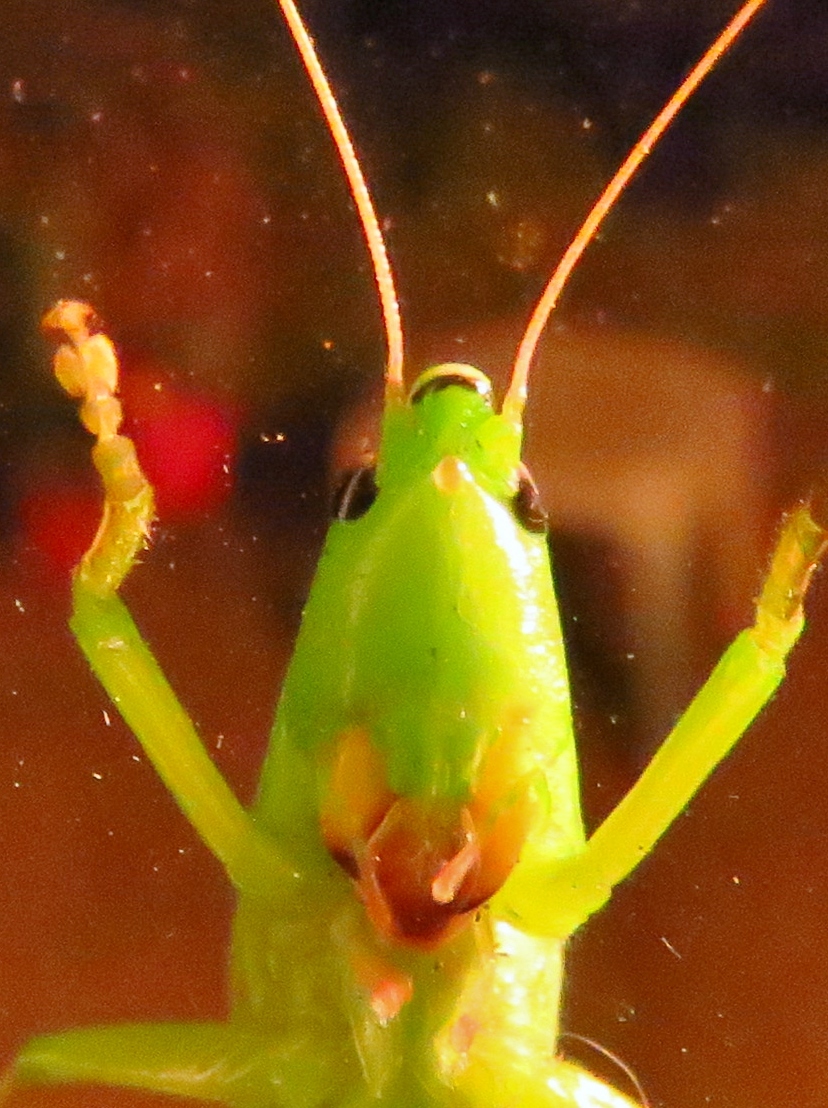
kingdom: Animalia
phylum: Arthropoda
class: Insecta
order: Orthoptera
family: Tettigoniidae
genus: Neoconocephalus
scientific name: Neoconocephalus triops
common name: Broad-tipped conehead
